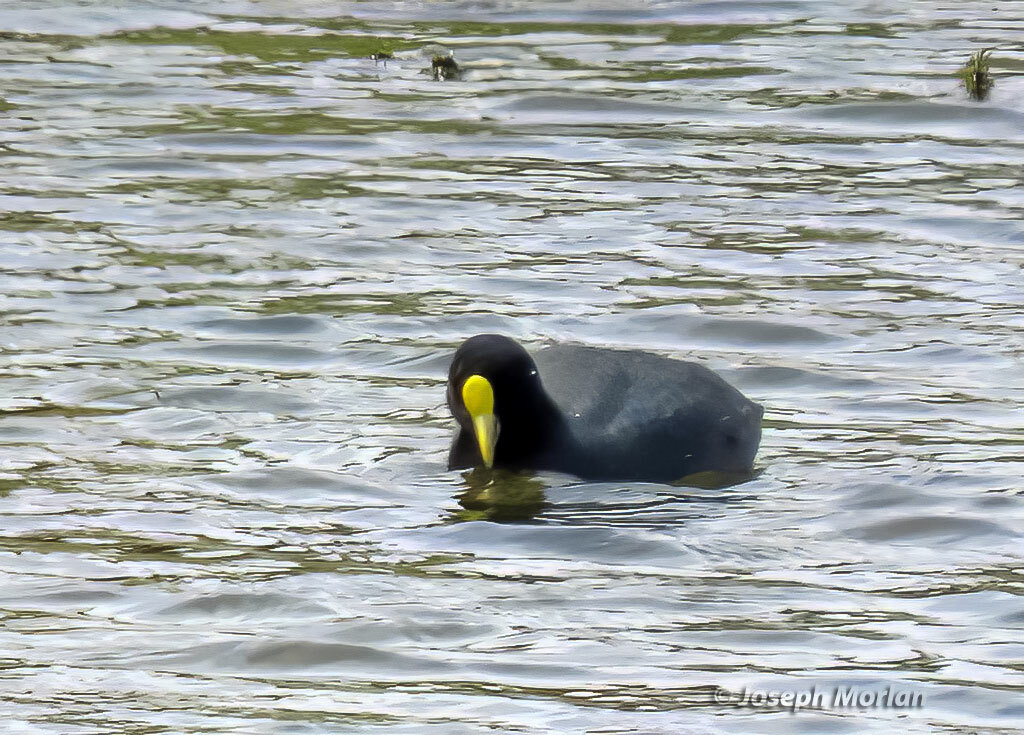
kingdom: Animalia
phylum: Chordata
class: Aves
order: Gruiformes
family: Rallidae
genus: Fulica
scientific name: Fulica leucoptera
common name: White-winged coot
